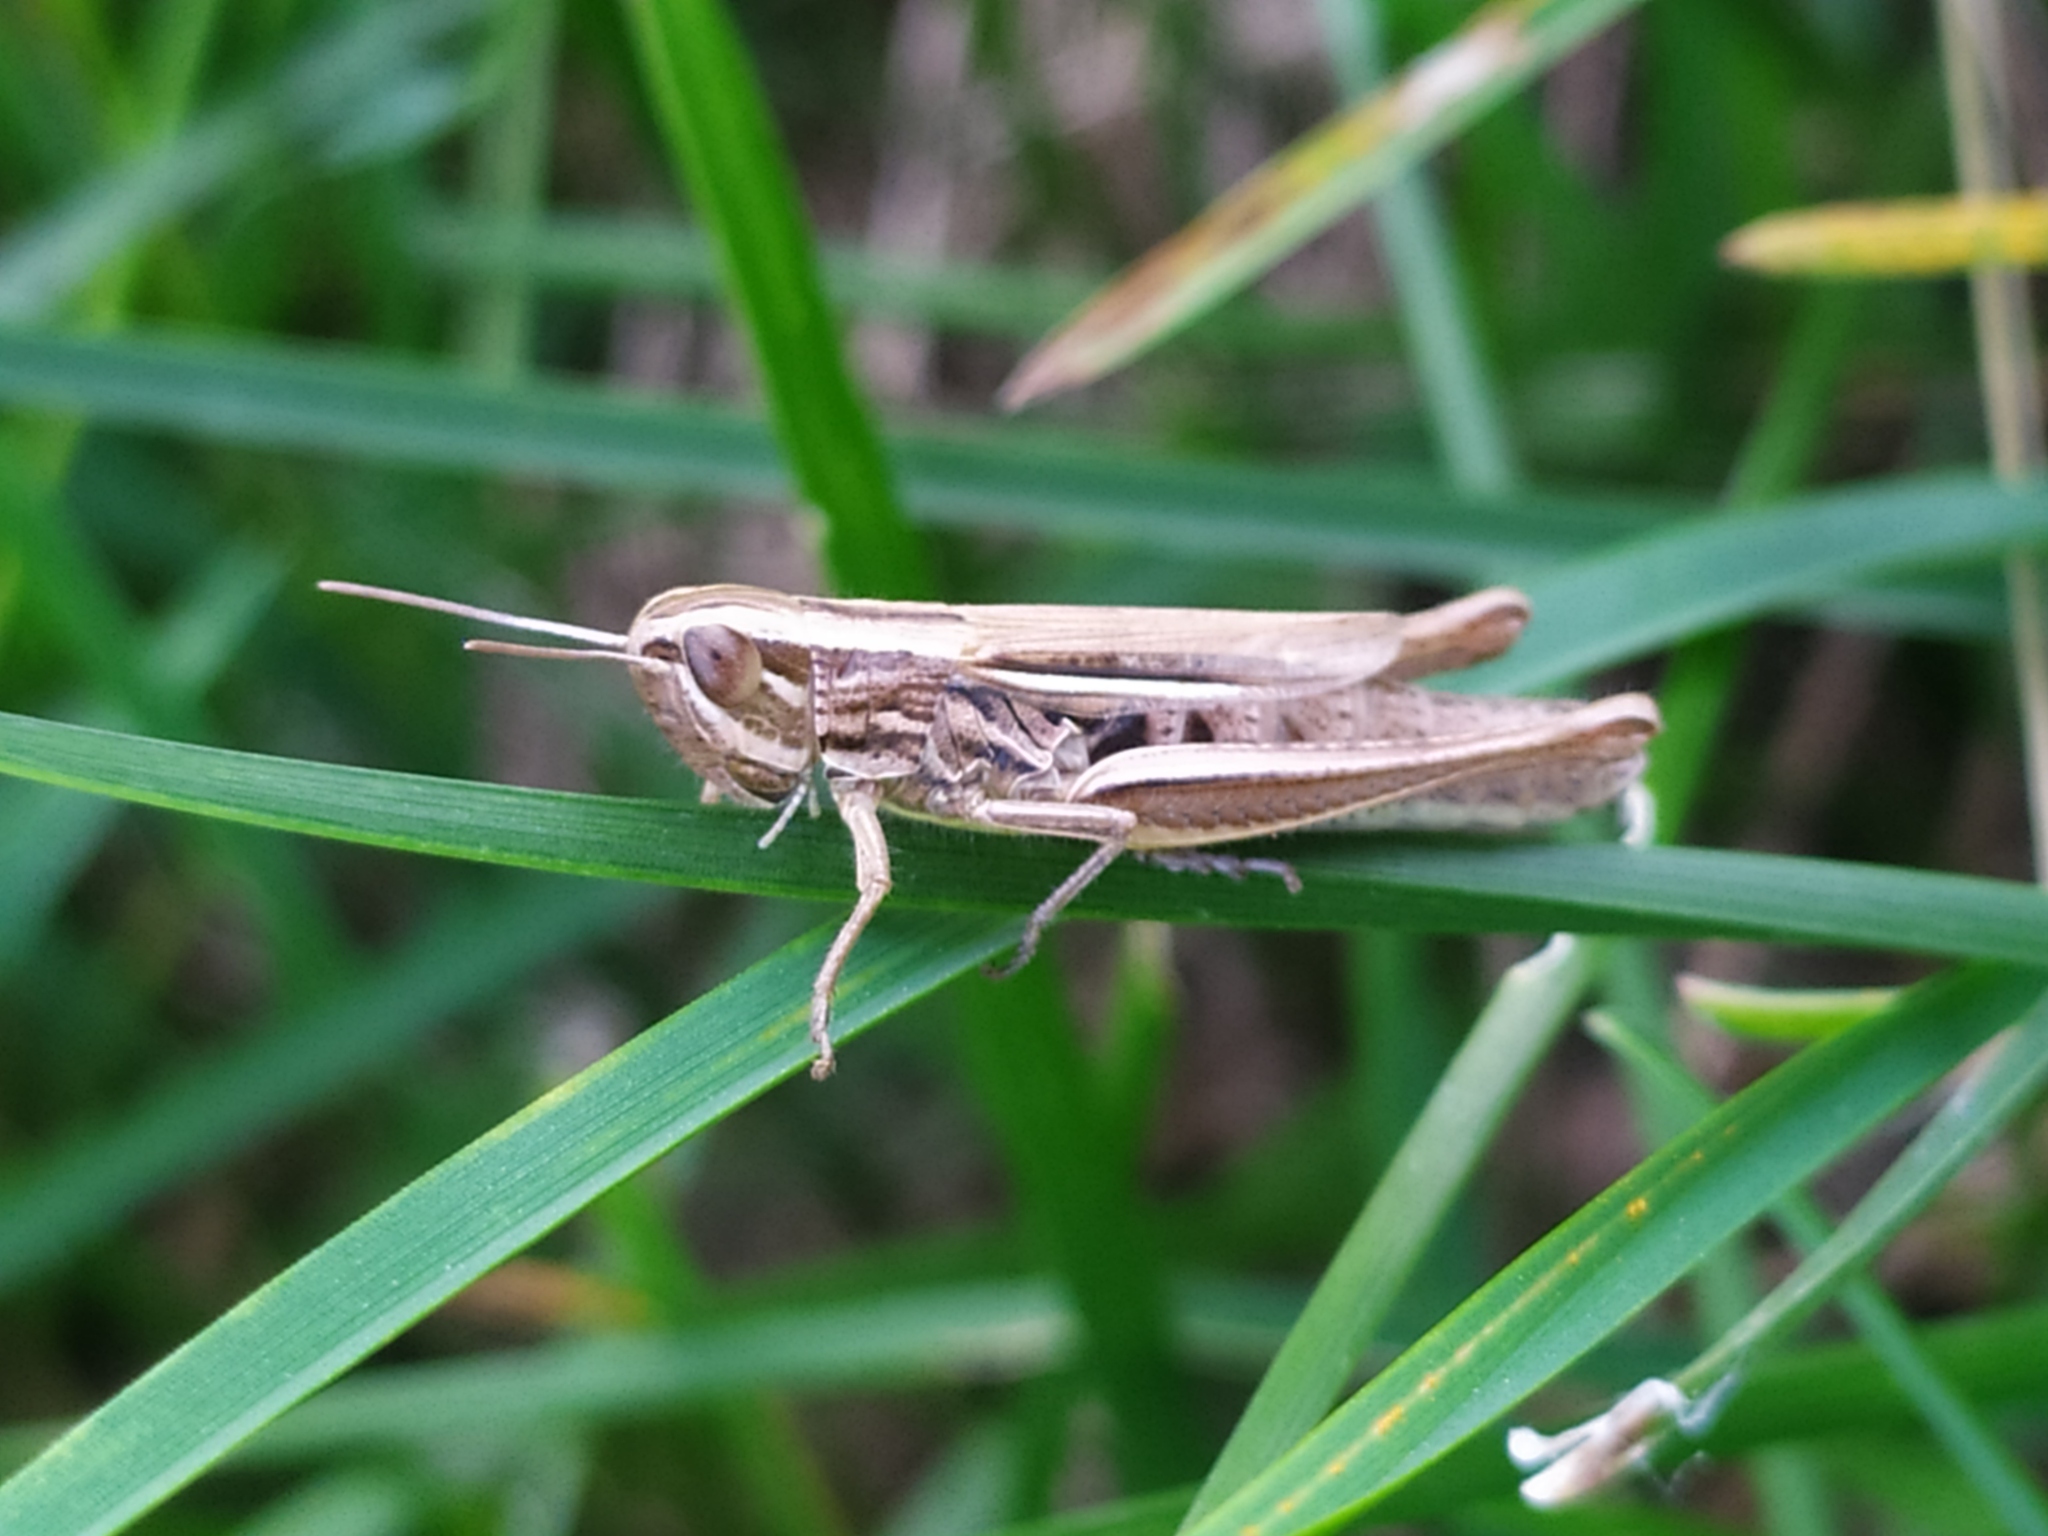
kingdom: Animalia
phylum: Arthropoda
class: Insecta
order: Orthoptera
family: Acrididae
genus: Euchorthippus
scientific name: Euchorthippus declivus
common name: Common straw grasshopper
